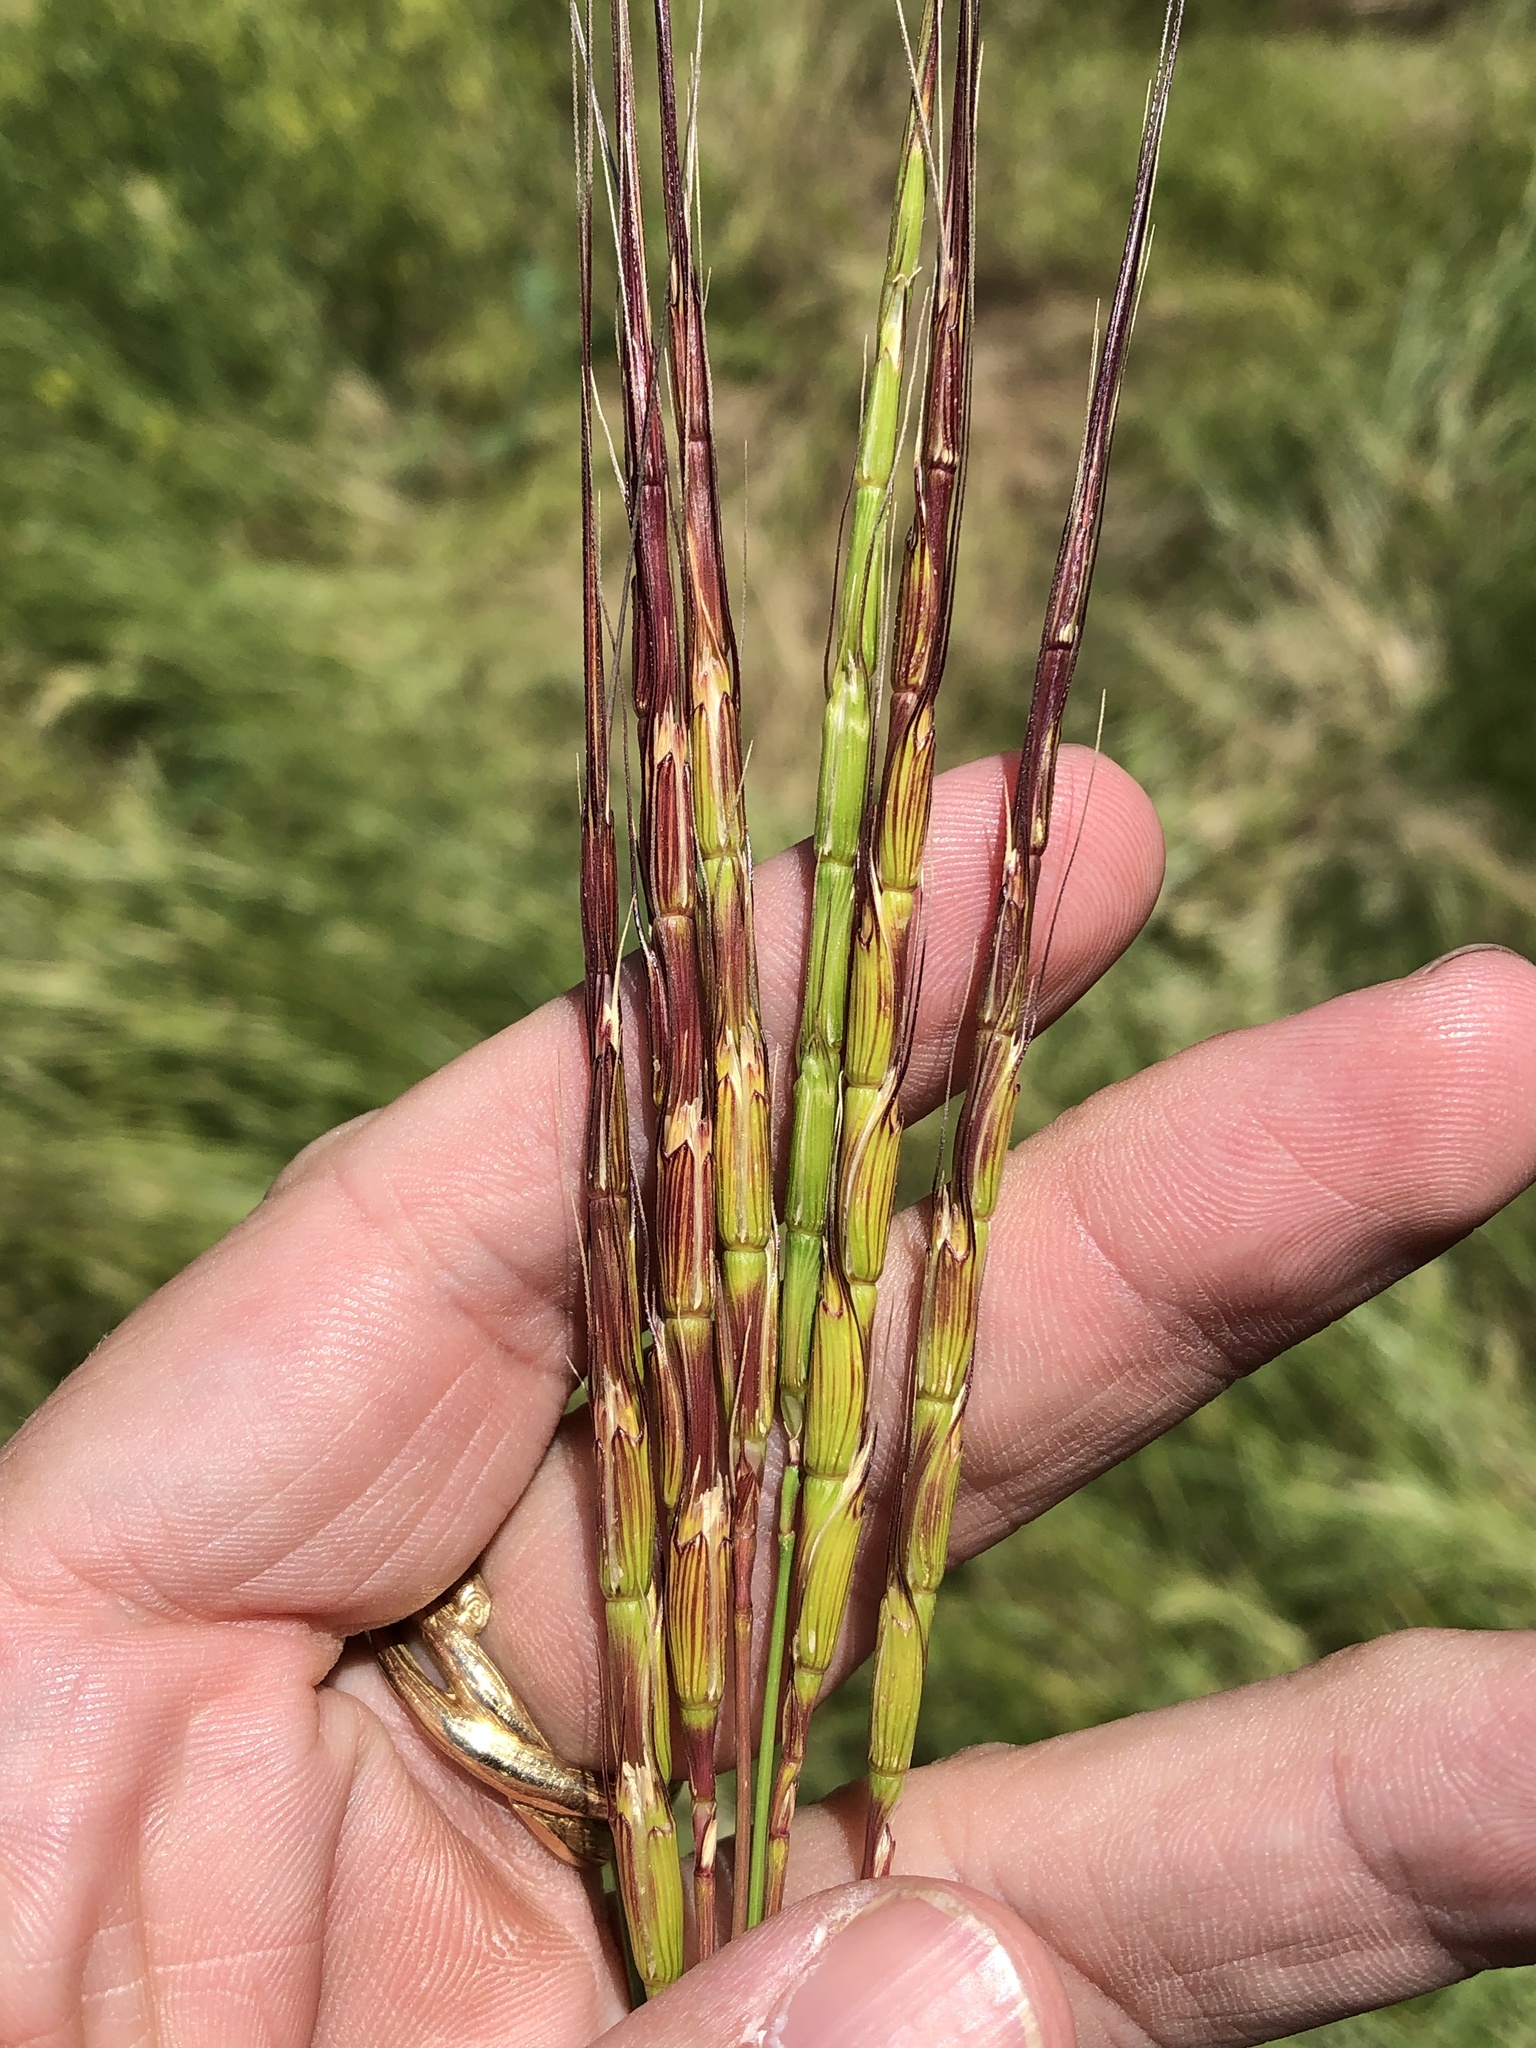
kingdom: Plantae
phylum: Tracheophyta
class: Liliopsida
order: Poales
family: Poaceae
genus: Aegilops
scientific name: Aegilops cylindrica
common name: Jointed goatgrass
